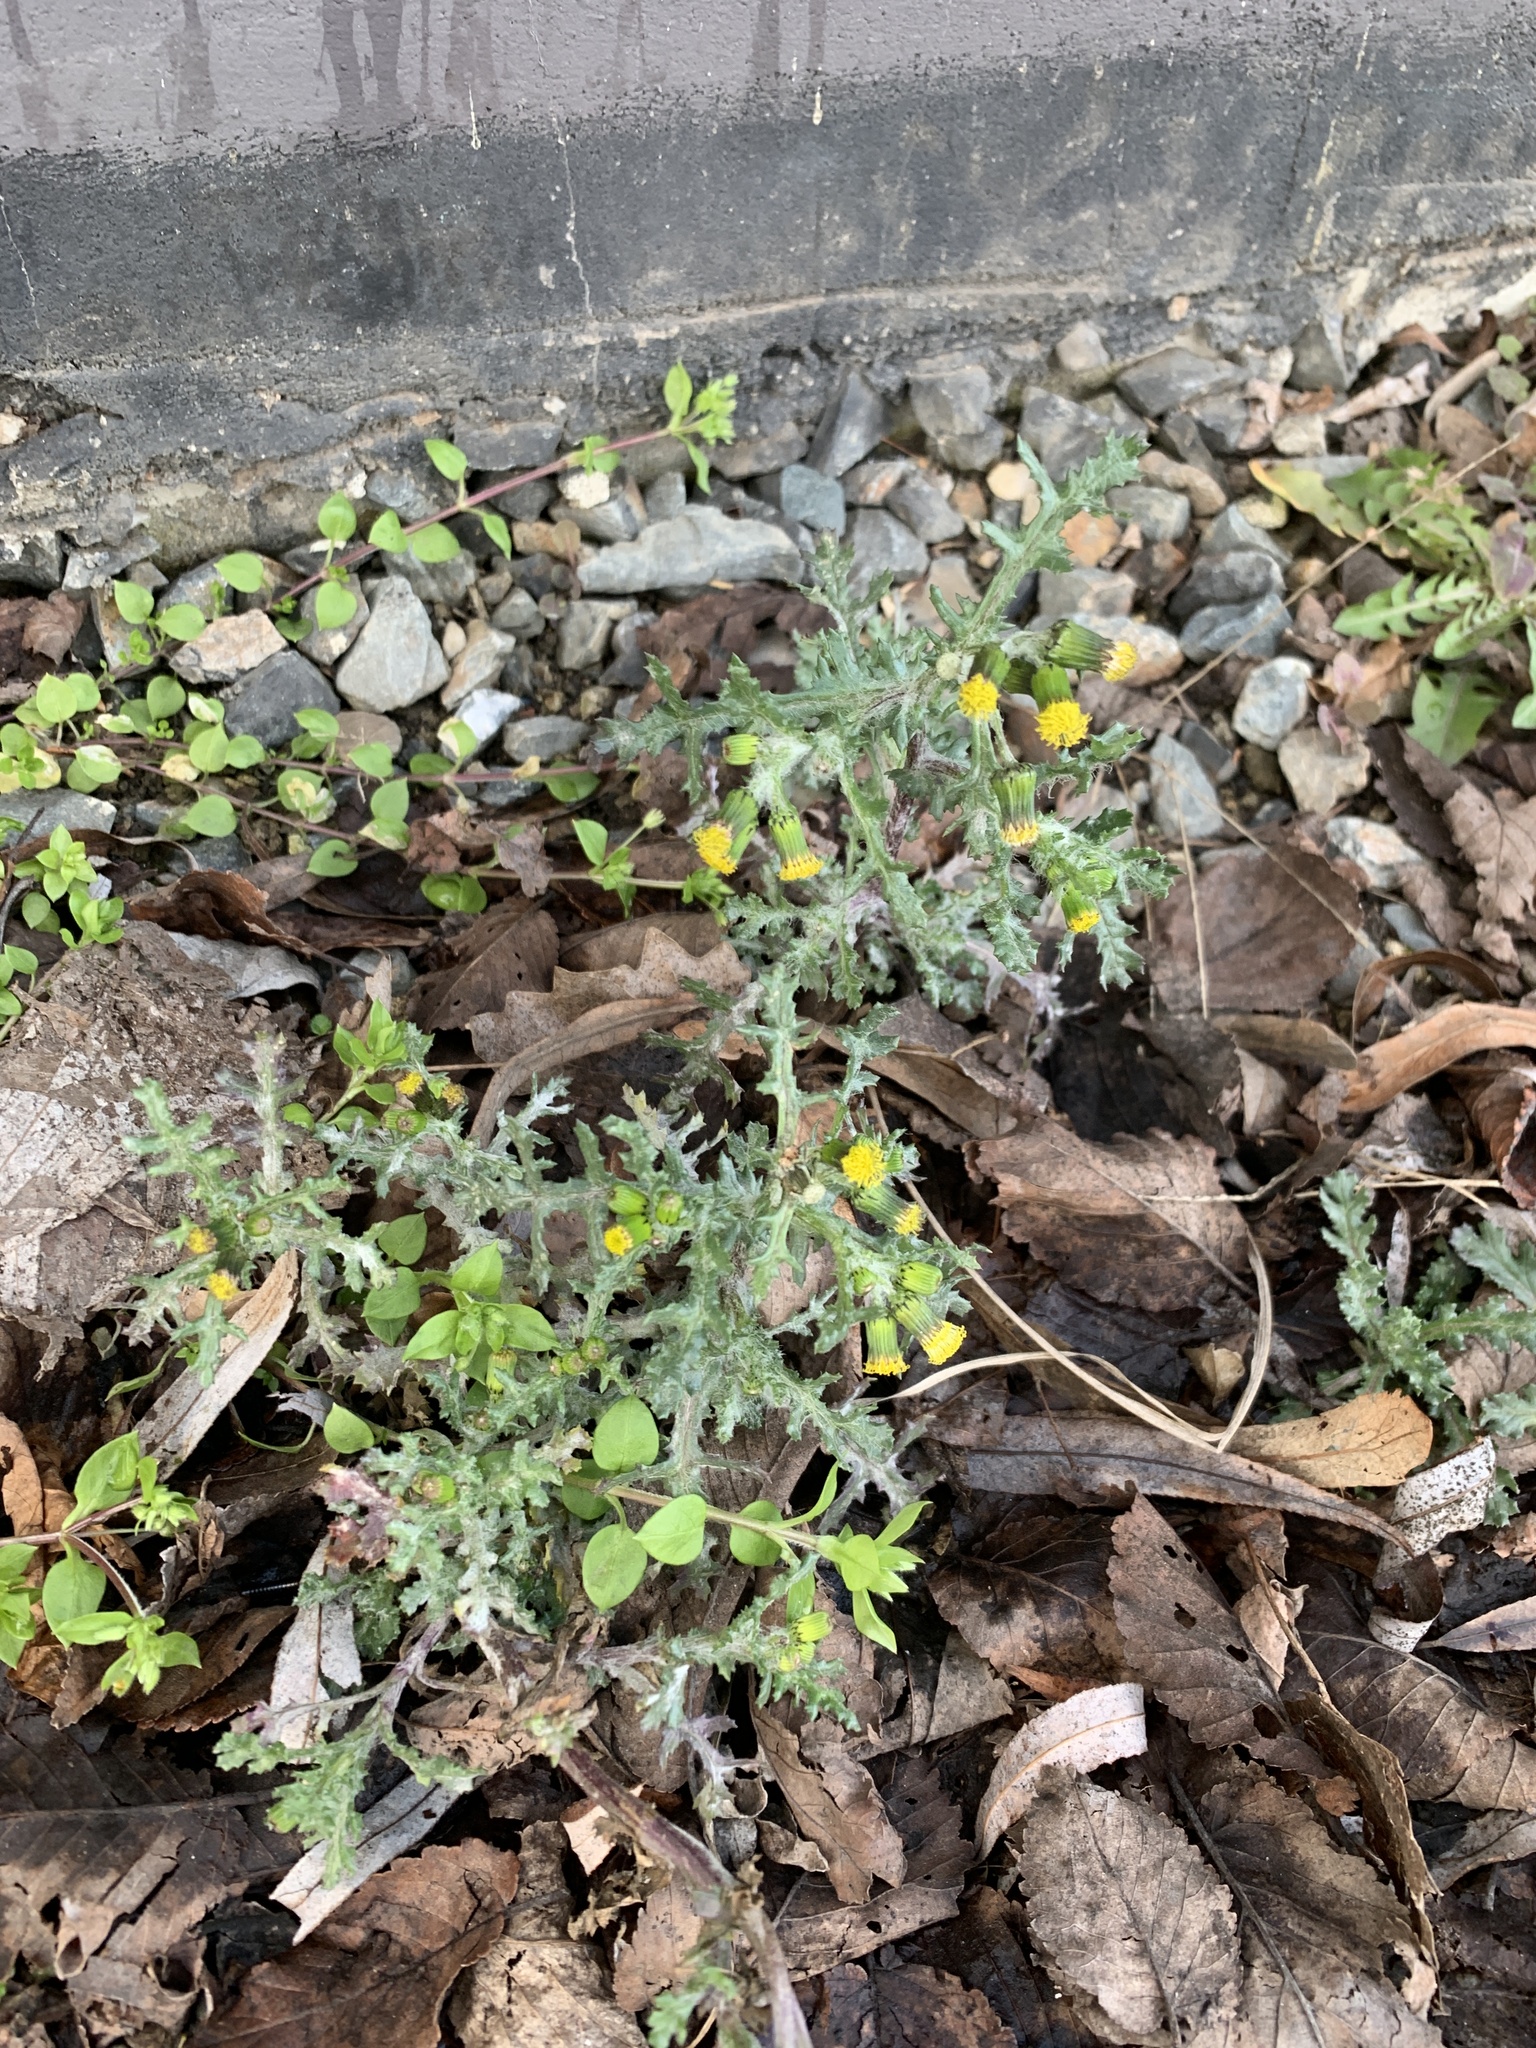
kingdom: Plantae
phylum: Tracheophyta
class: Magnoliopsida
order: Asterales
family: Asteraceae
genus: Senecio
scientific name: Senecio vulgaris
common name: Old-man-in-the-spring
